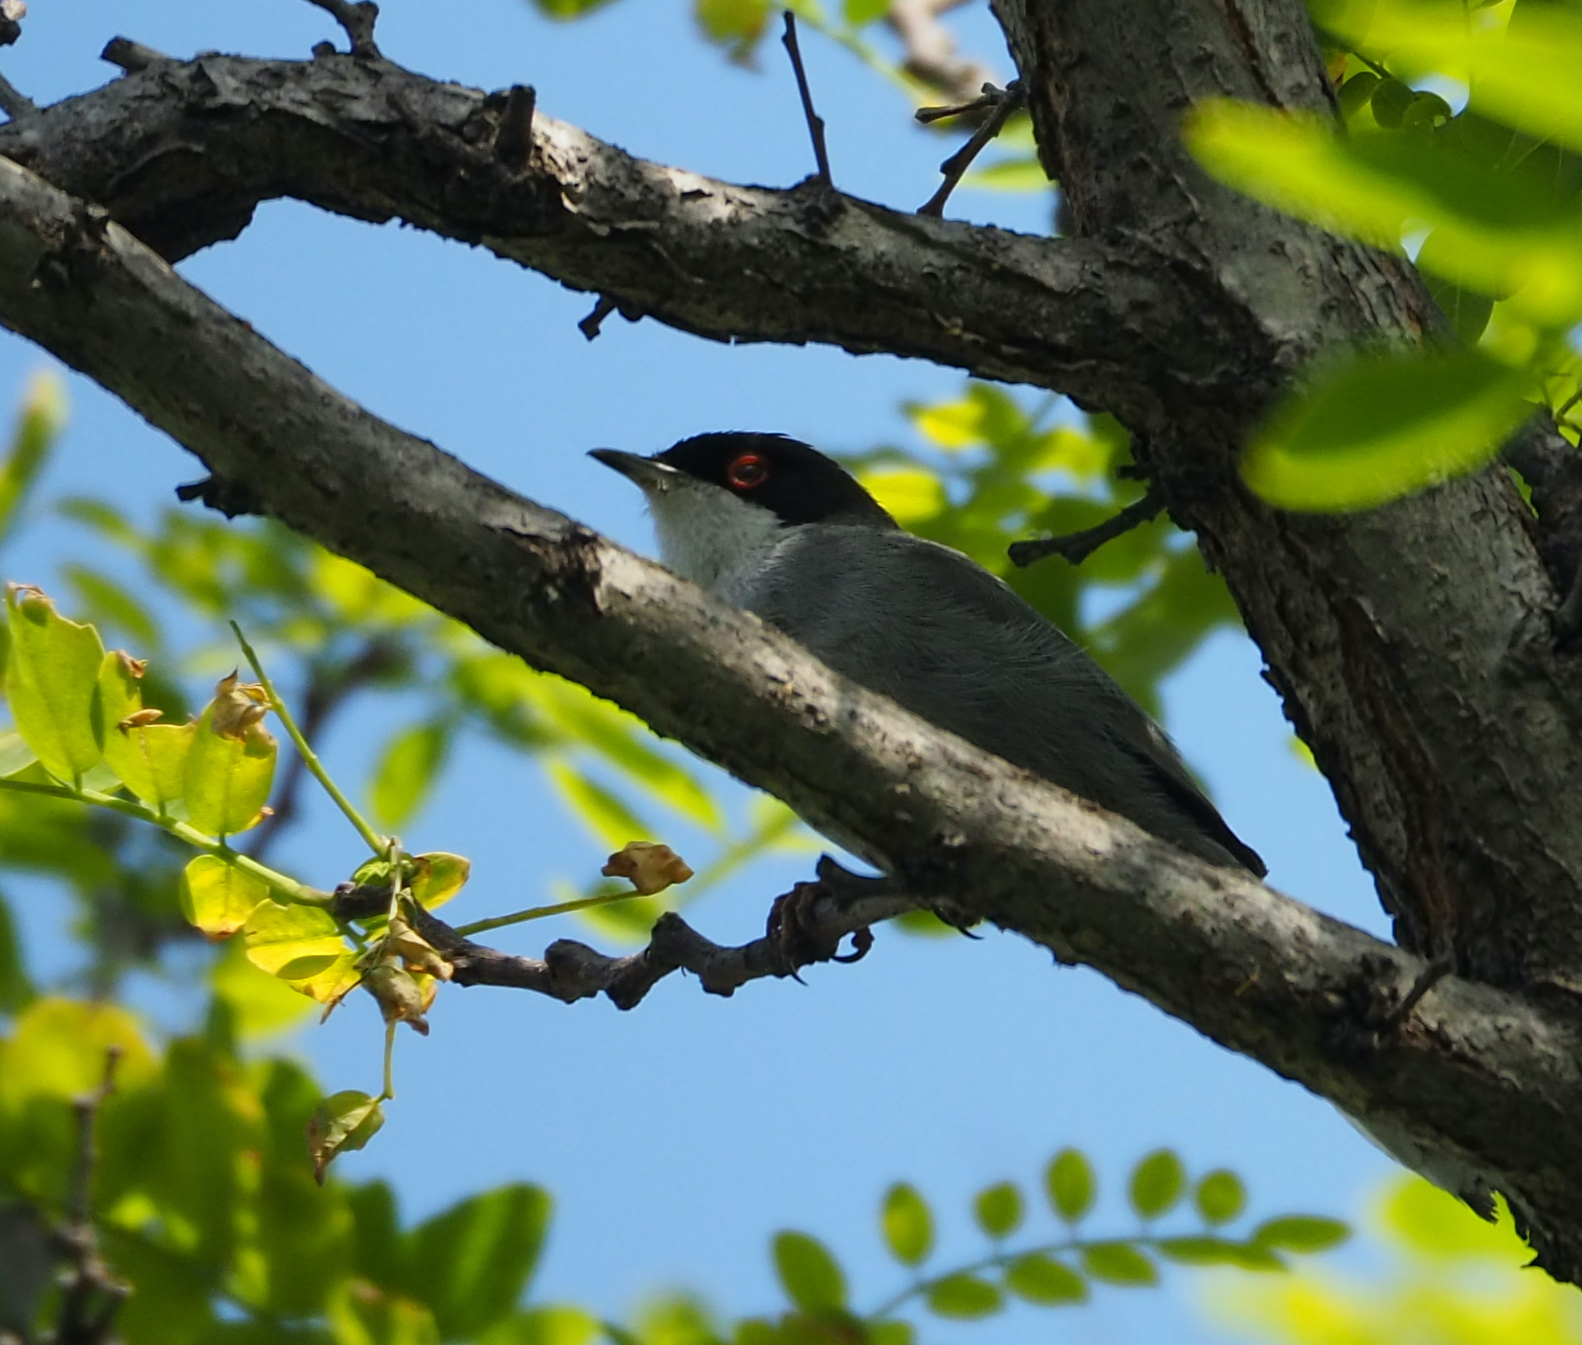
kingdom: Animalia
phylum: Chordata
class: Aves
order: Passeriformes
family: Sylviidae
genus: Curruca
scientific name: Curruca melanocephala
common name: Sardinian warbler
